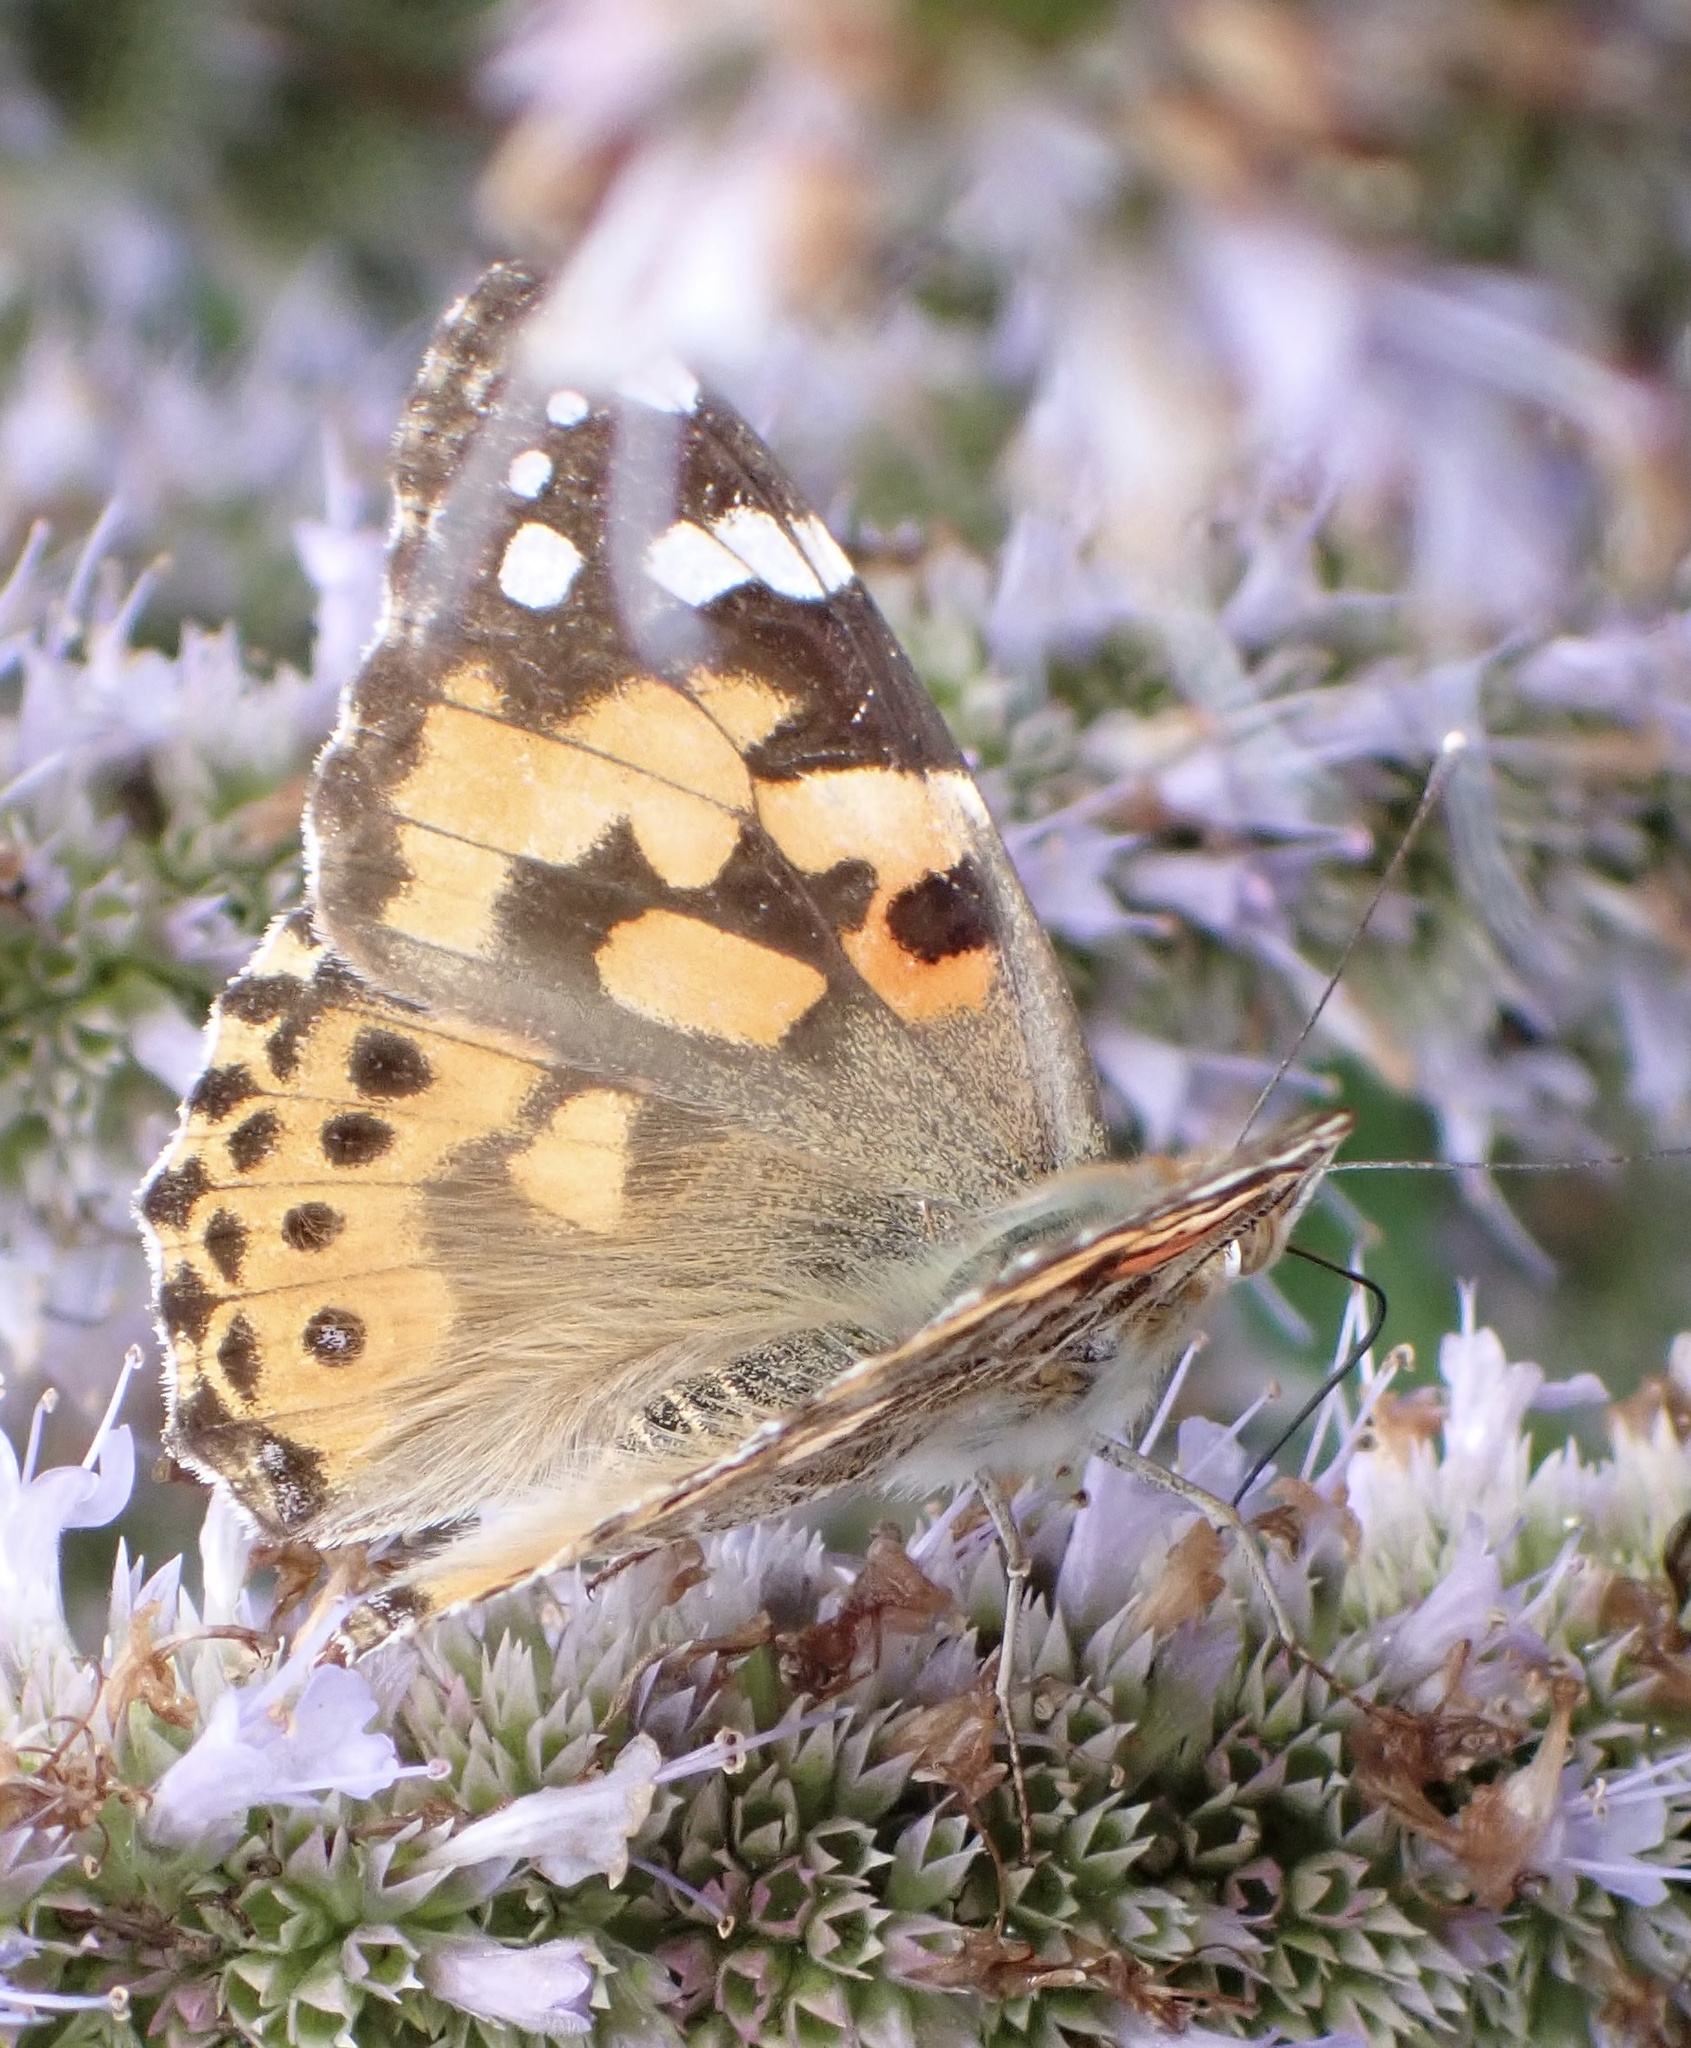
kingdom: Animalia
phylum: Arthropoda
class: Insecta
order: Lepidoptera
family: Nymphalidae
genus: Vanessa
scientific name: Vanessa cardui
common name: Painted lady
